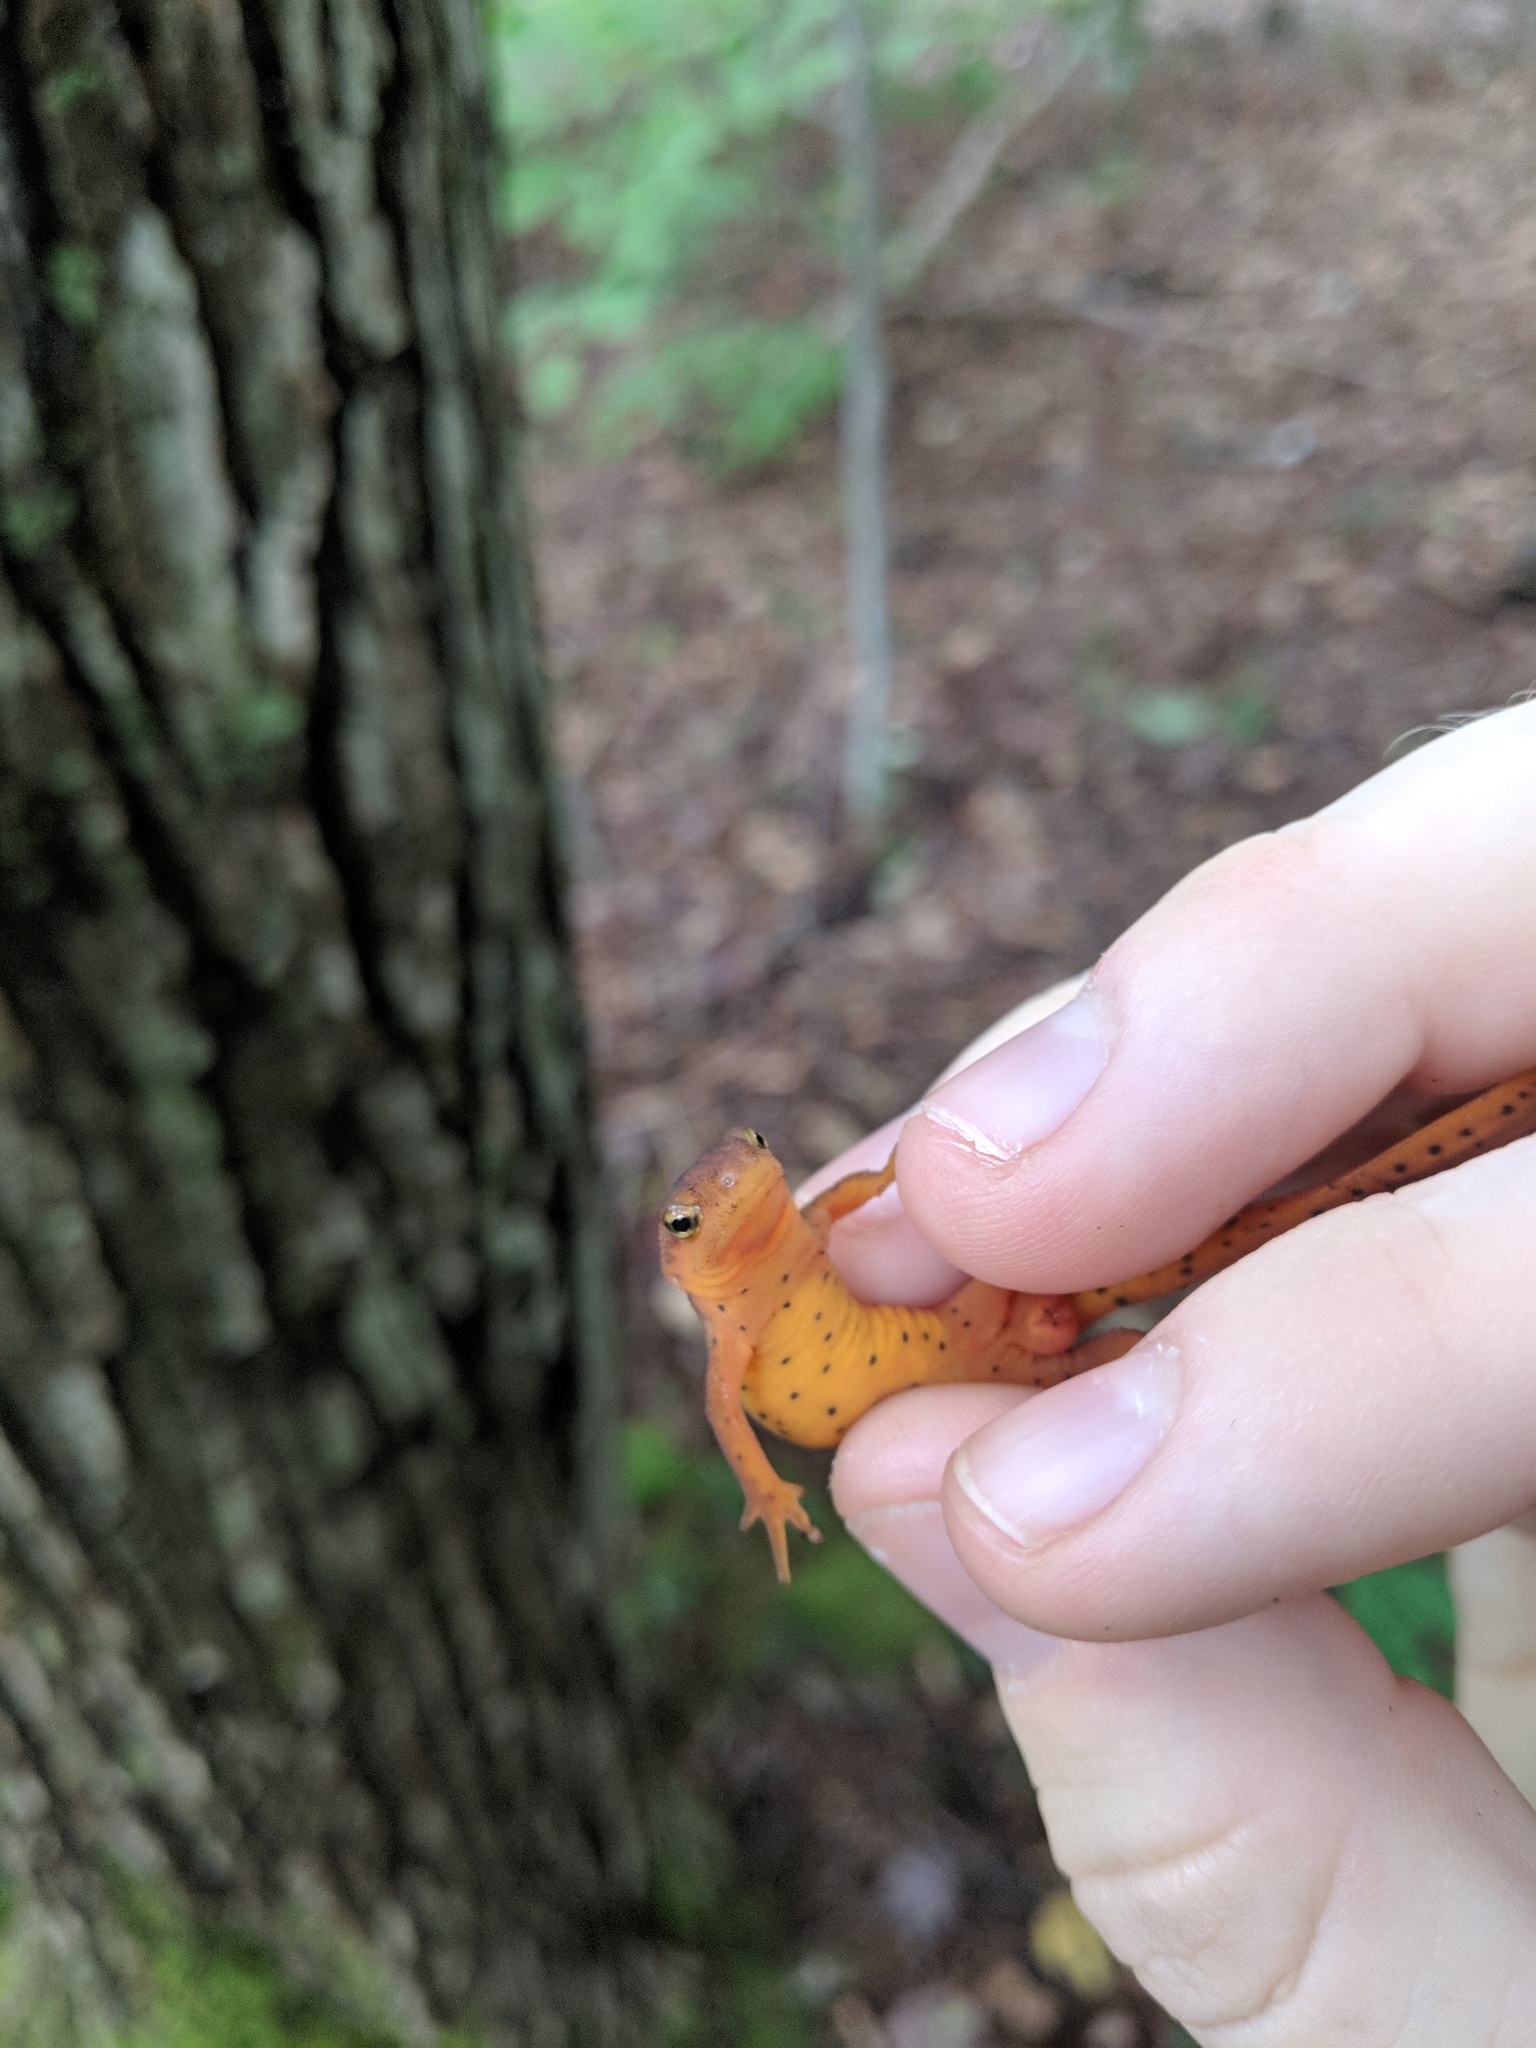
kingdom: Animalia
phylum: Chordata
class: Amphibia
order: Caudata
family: Salamandridae
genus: Notophthalmus
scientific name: Notophthalmus viridescens
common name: Eastern newt
